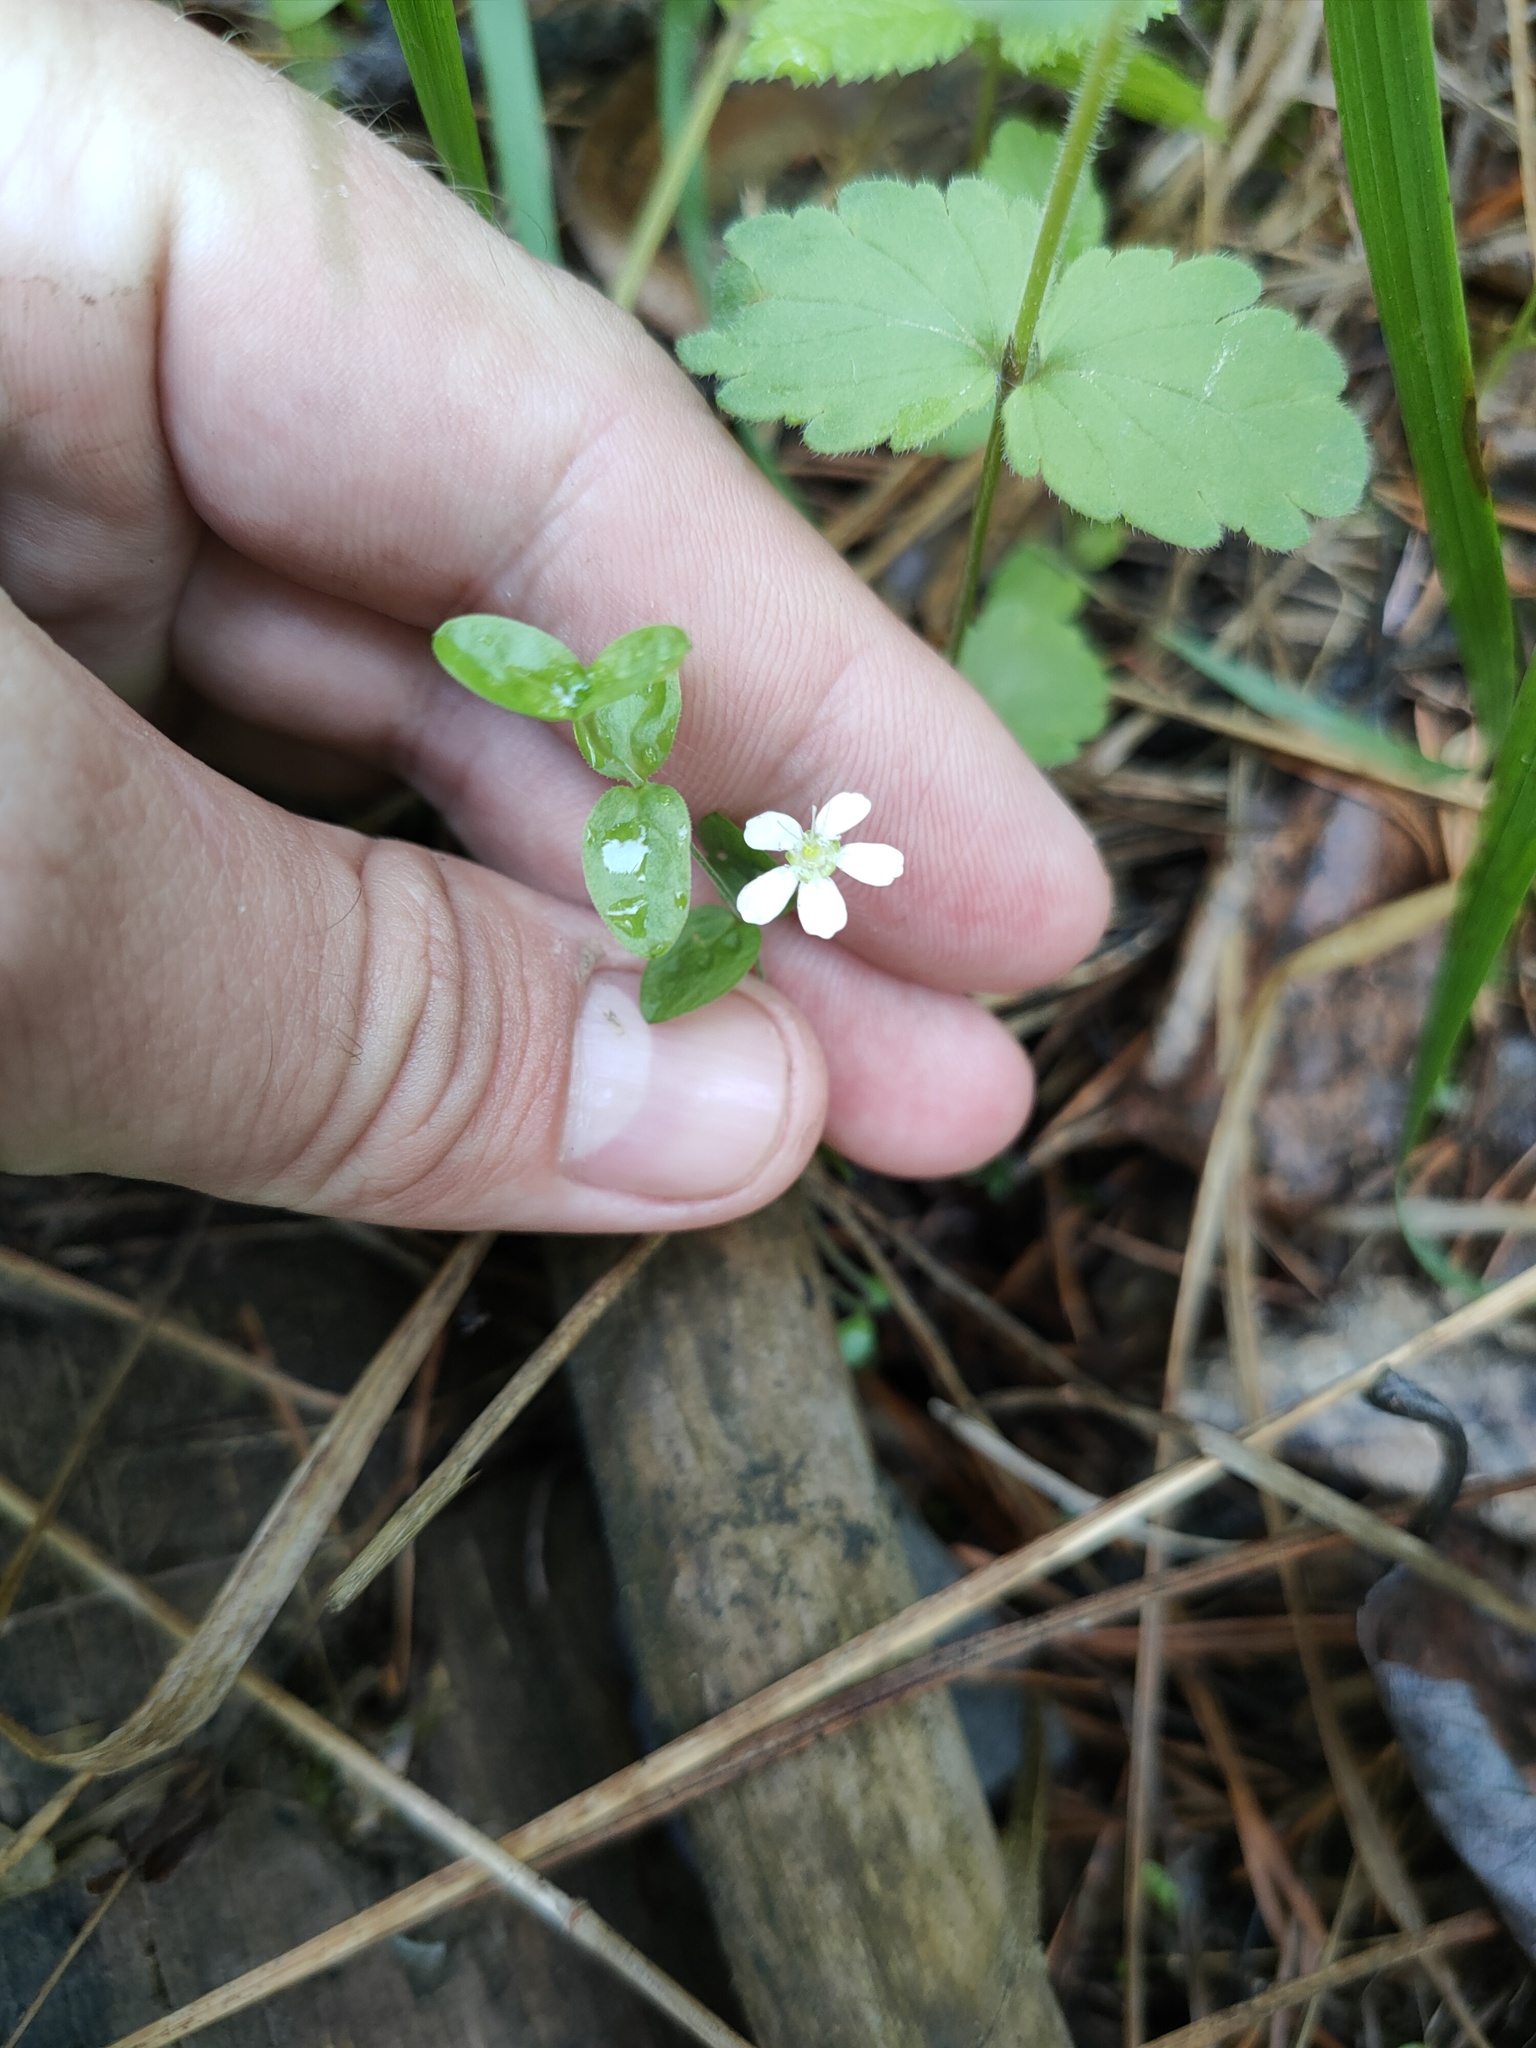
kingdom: Plantae
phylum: Tracheophyta
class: Magnoliopsida
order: Caryophyllales
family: Caryophyllaceae
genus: Moehringia
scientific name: Moehringia lateriflora
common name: Blunt-leaved sandwort
